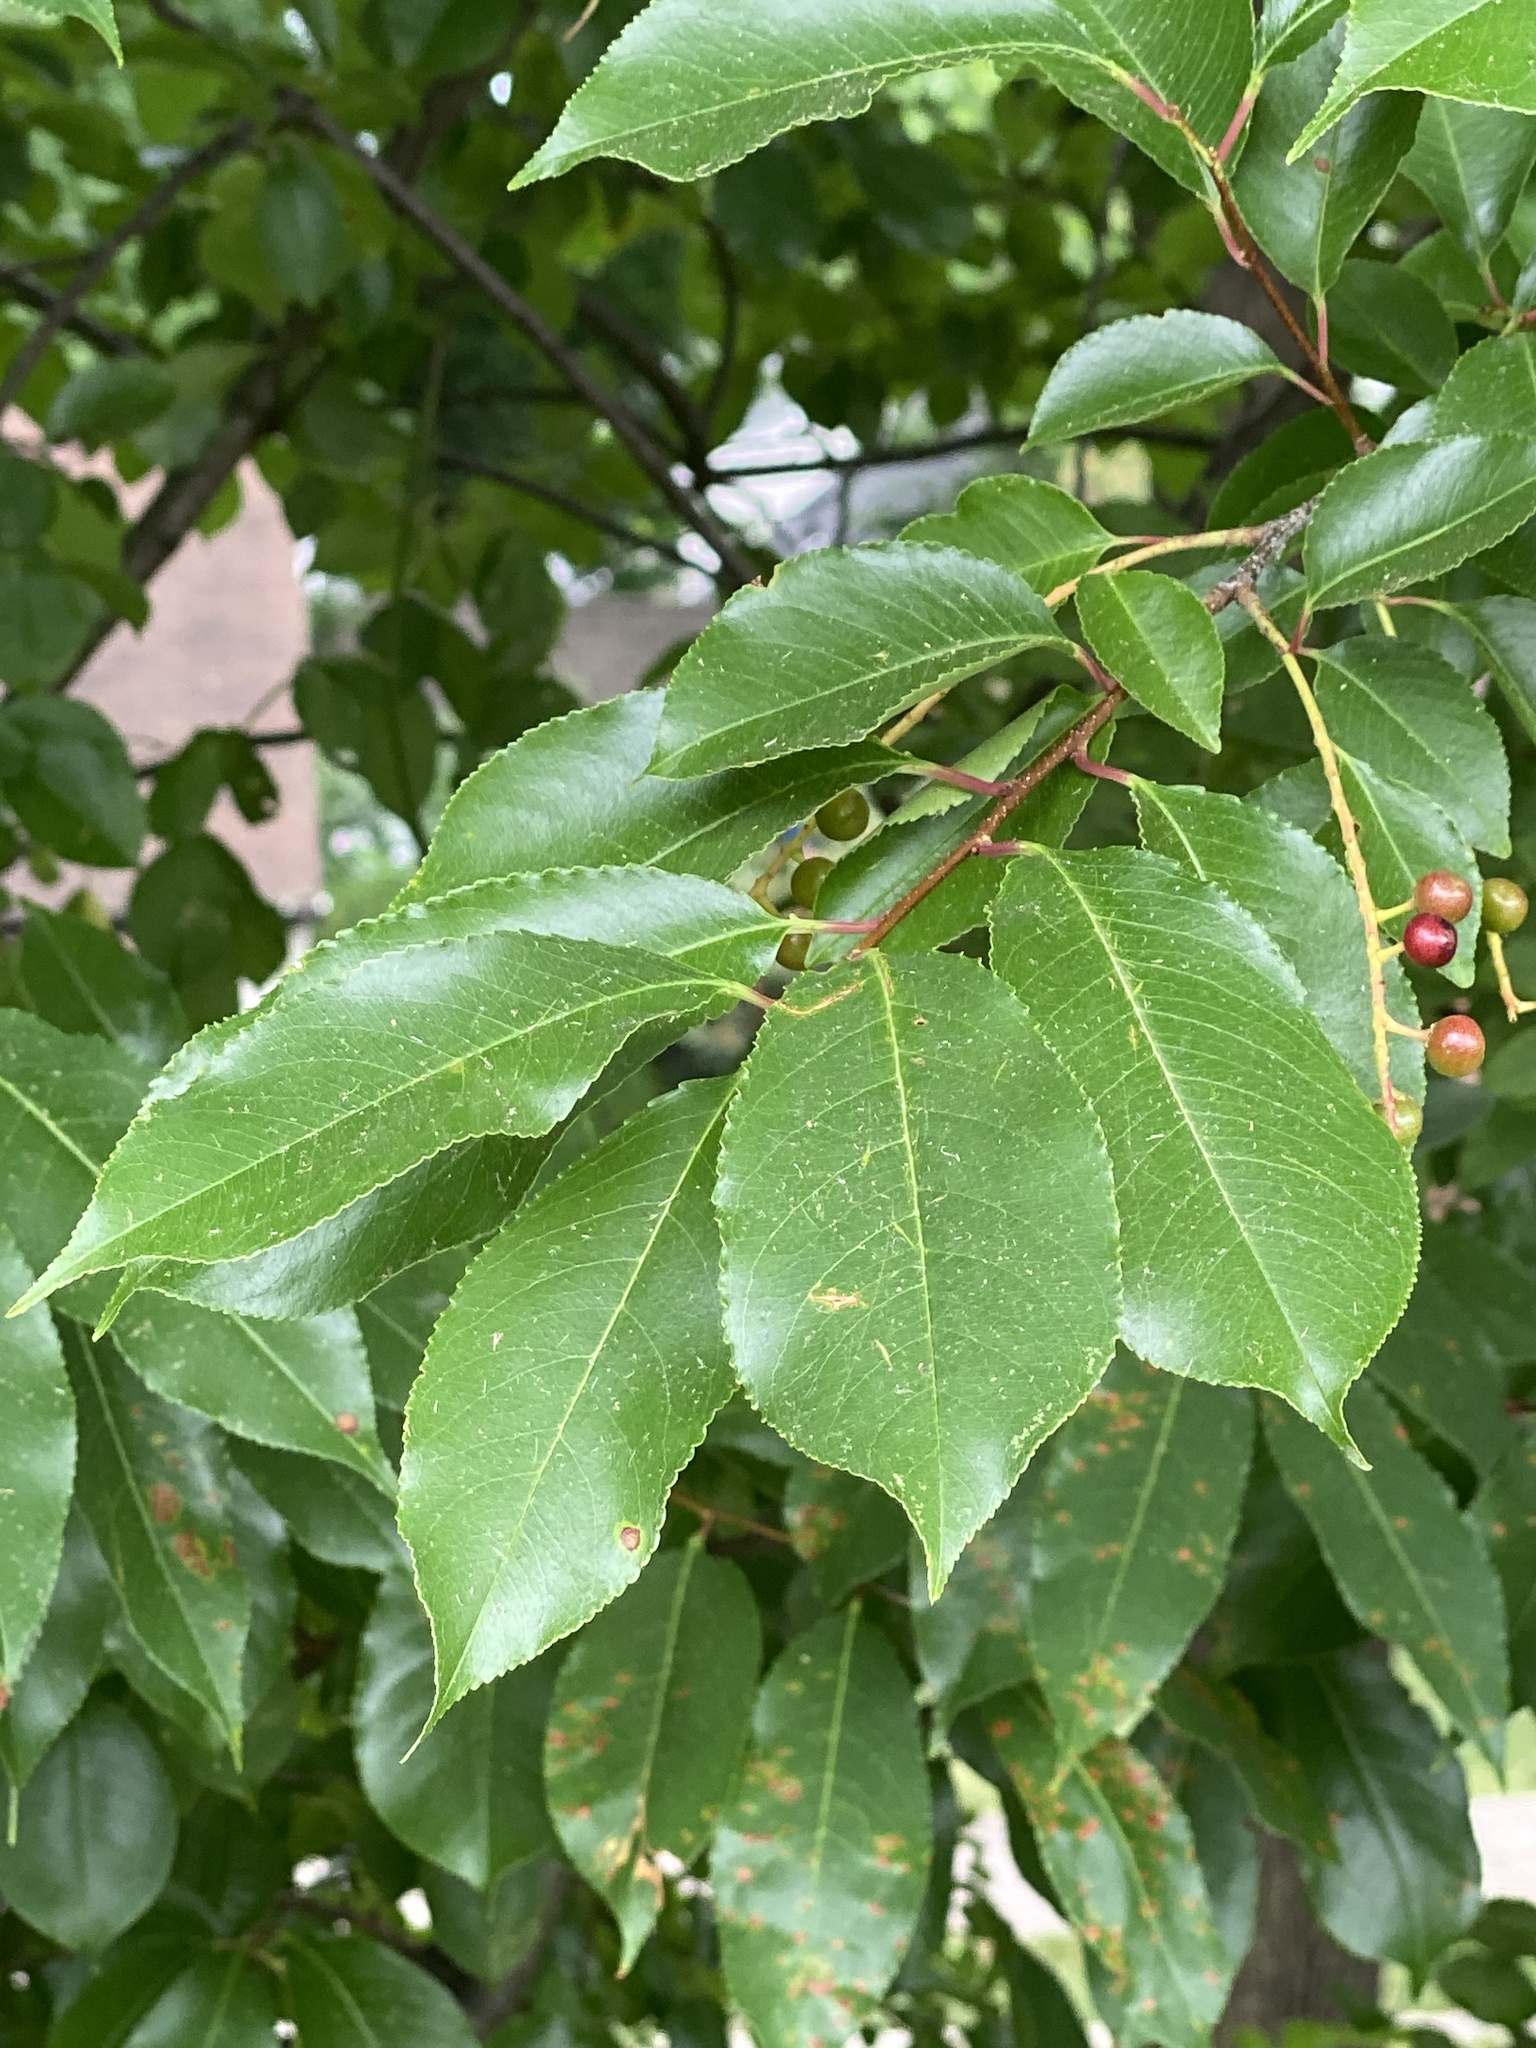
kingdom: Plantae
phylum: Tracheophyta
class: Magnoliopsida
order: Rosales
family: Rosaceae
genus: Prunus
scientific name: Prunus serotina
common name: Black cherry
